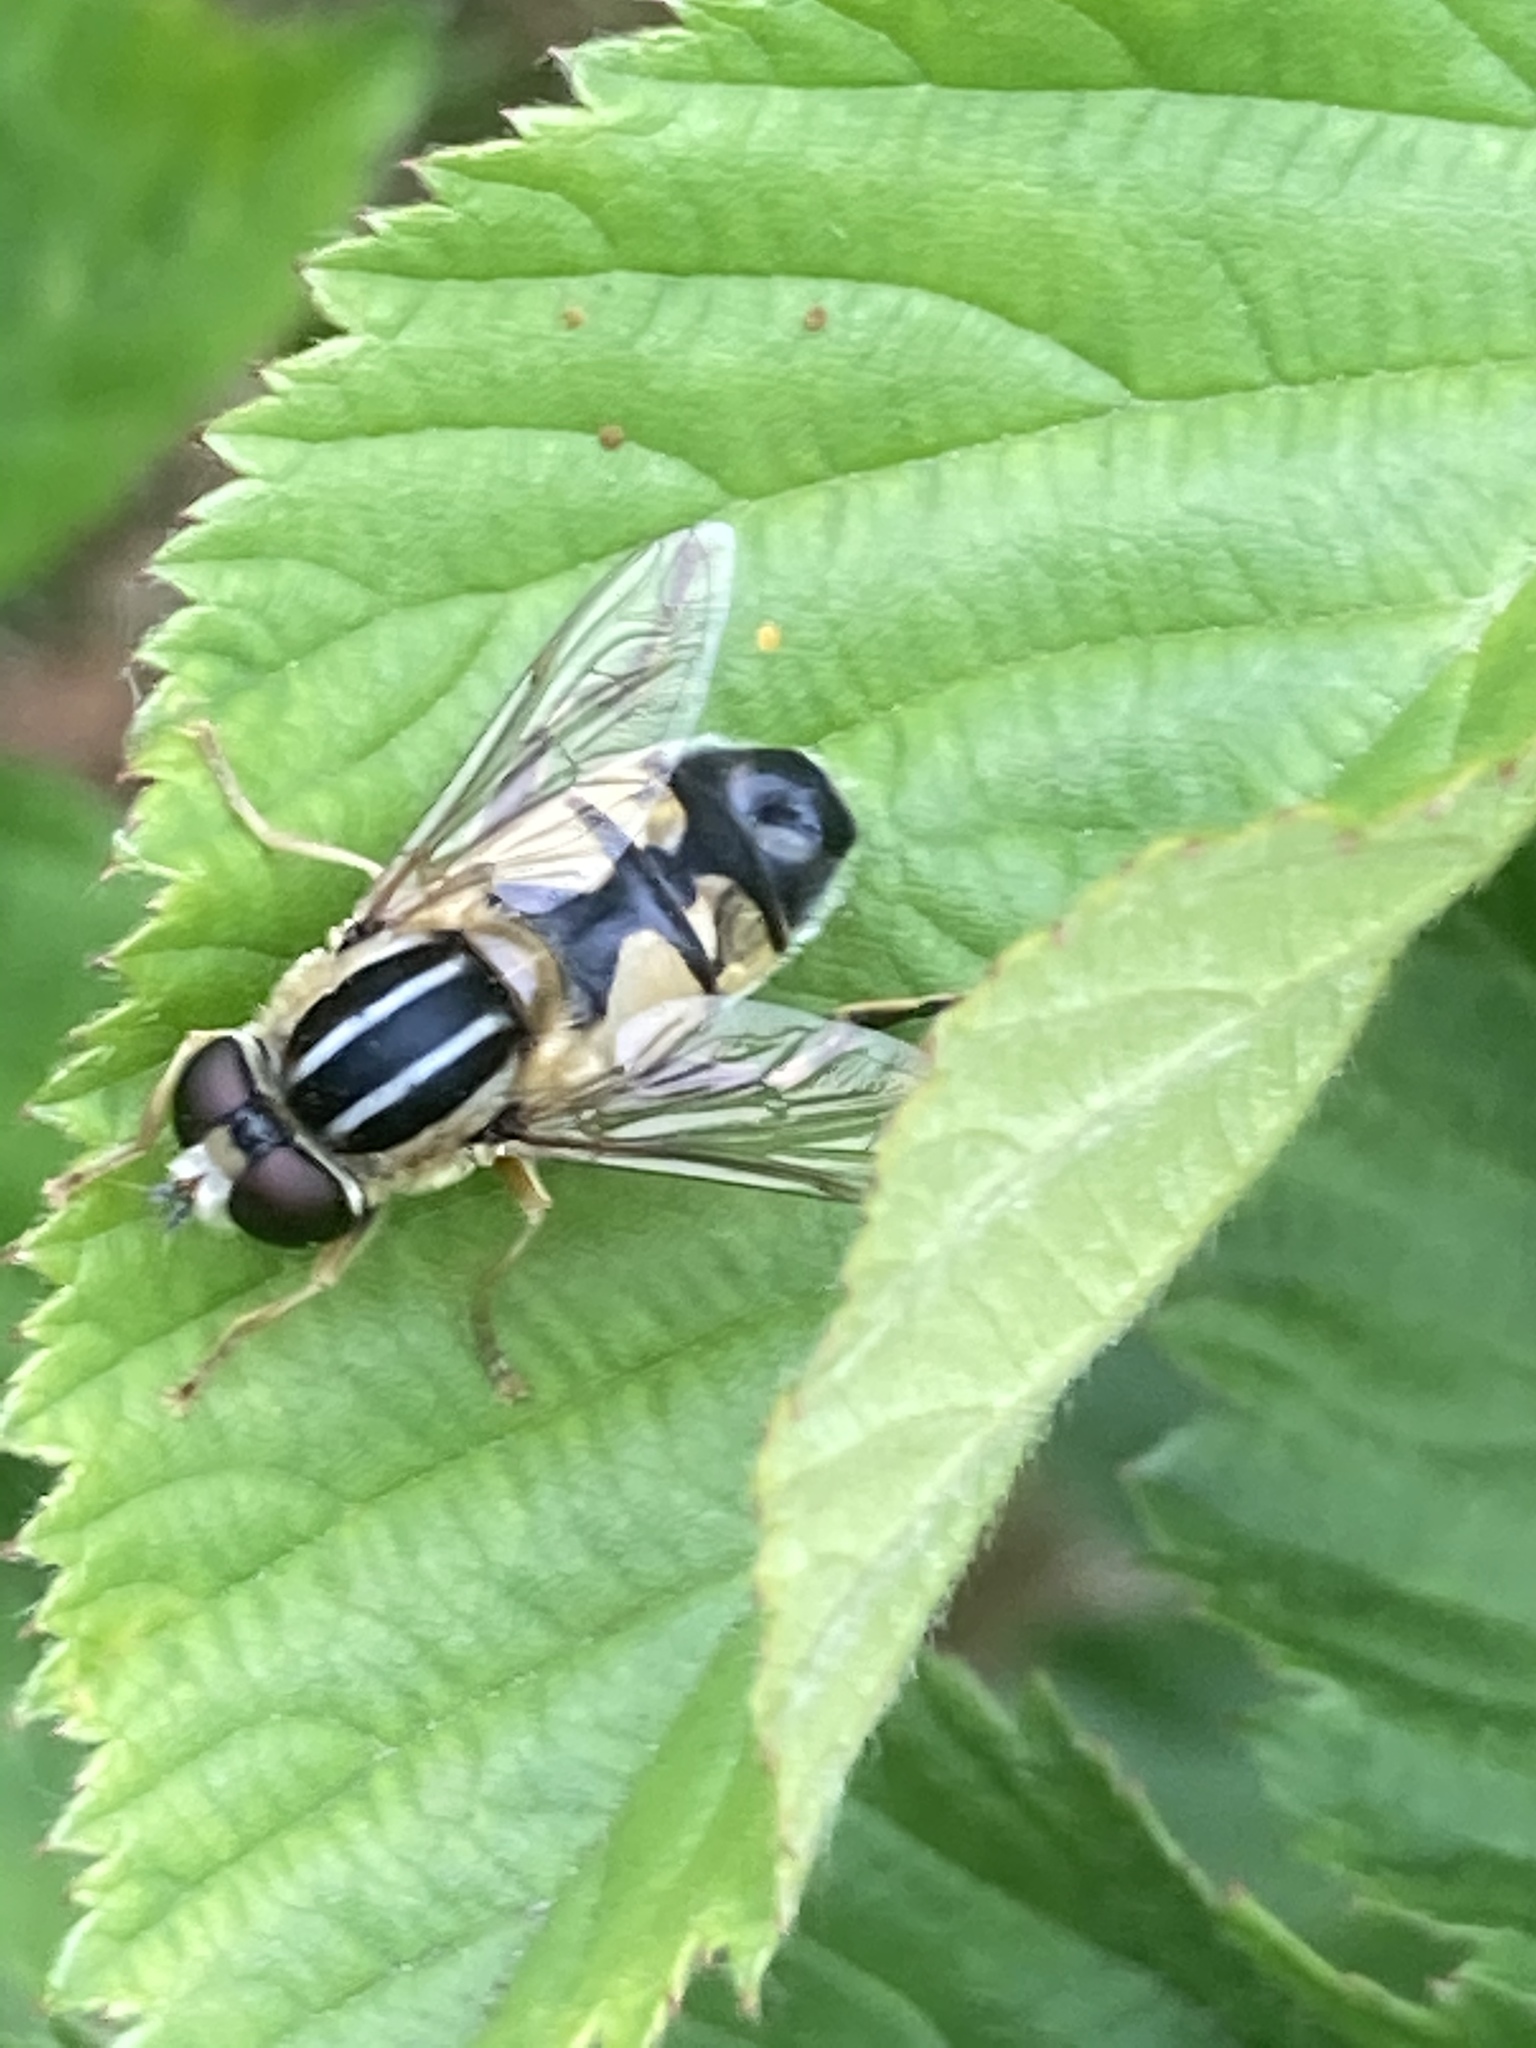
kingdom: Animalia
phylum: Arthropoda
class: Insecta
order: Diptera
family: Syrphidae
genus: Helophilus
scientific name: Helophilus trivittatus
